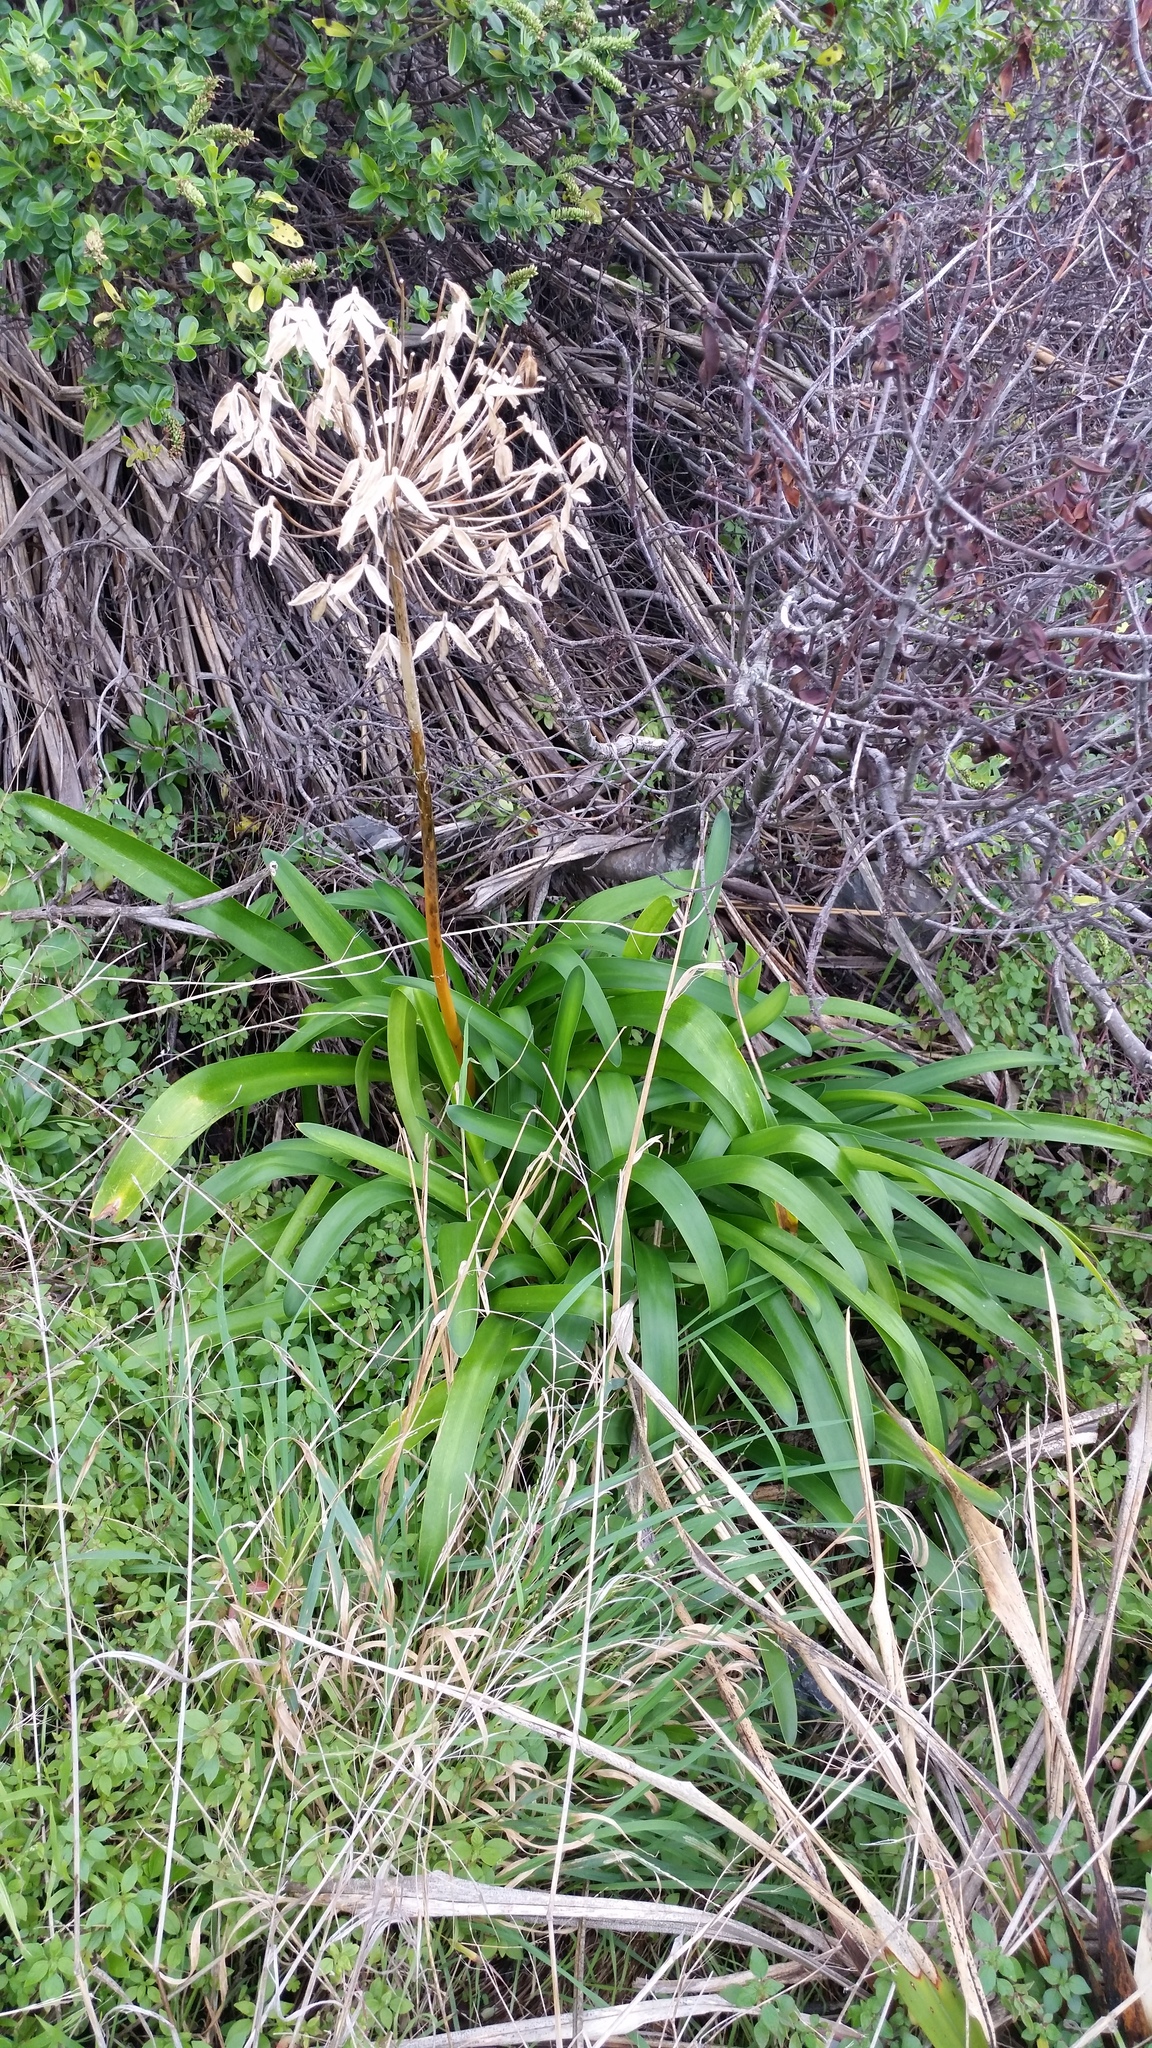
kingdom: Plantae
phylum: Tracheophyta
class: Liliopsida
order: Asparagales
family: Amaryllidaceae
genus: Agapanthus
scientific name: Agapanthus praecox
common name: African-lily
